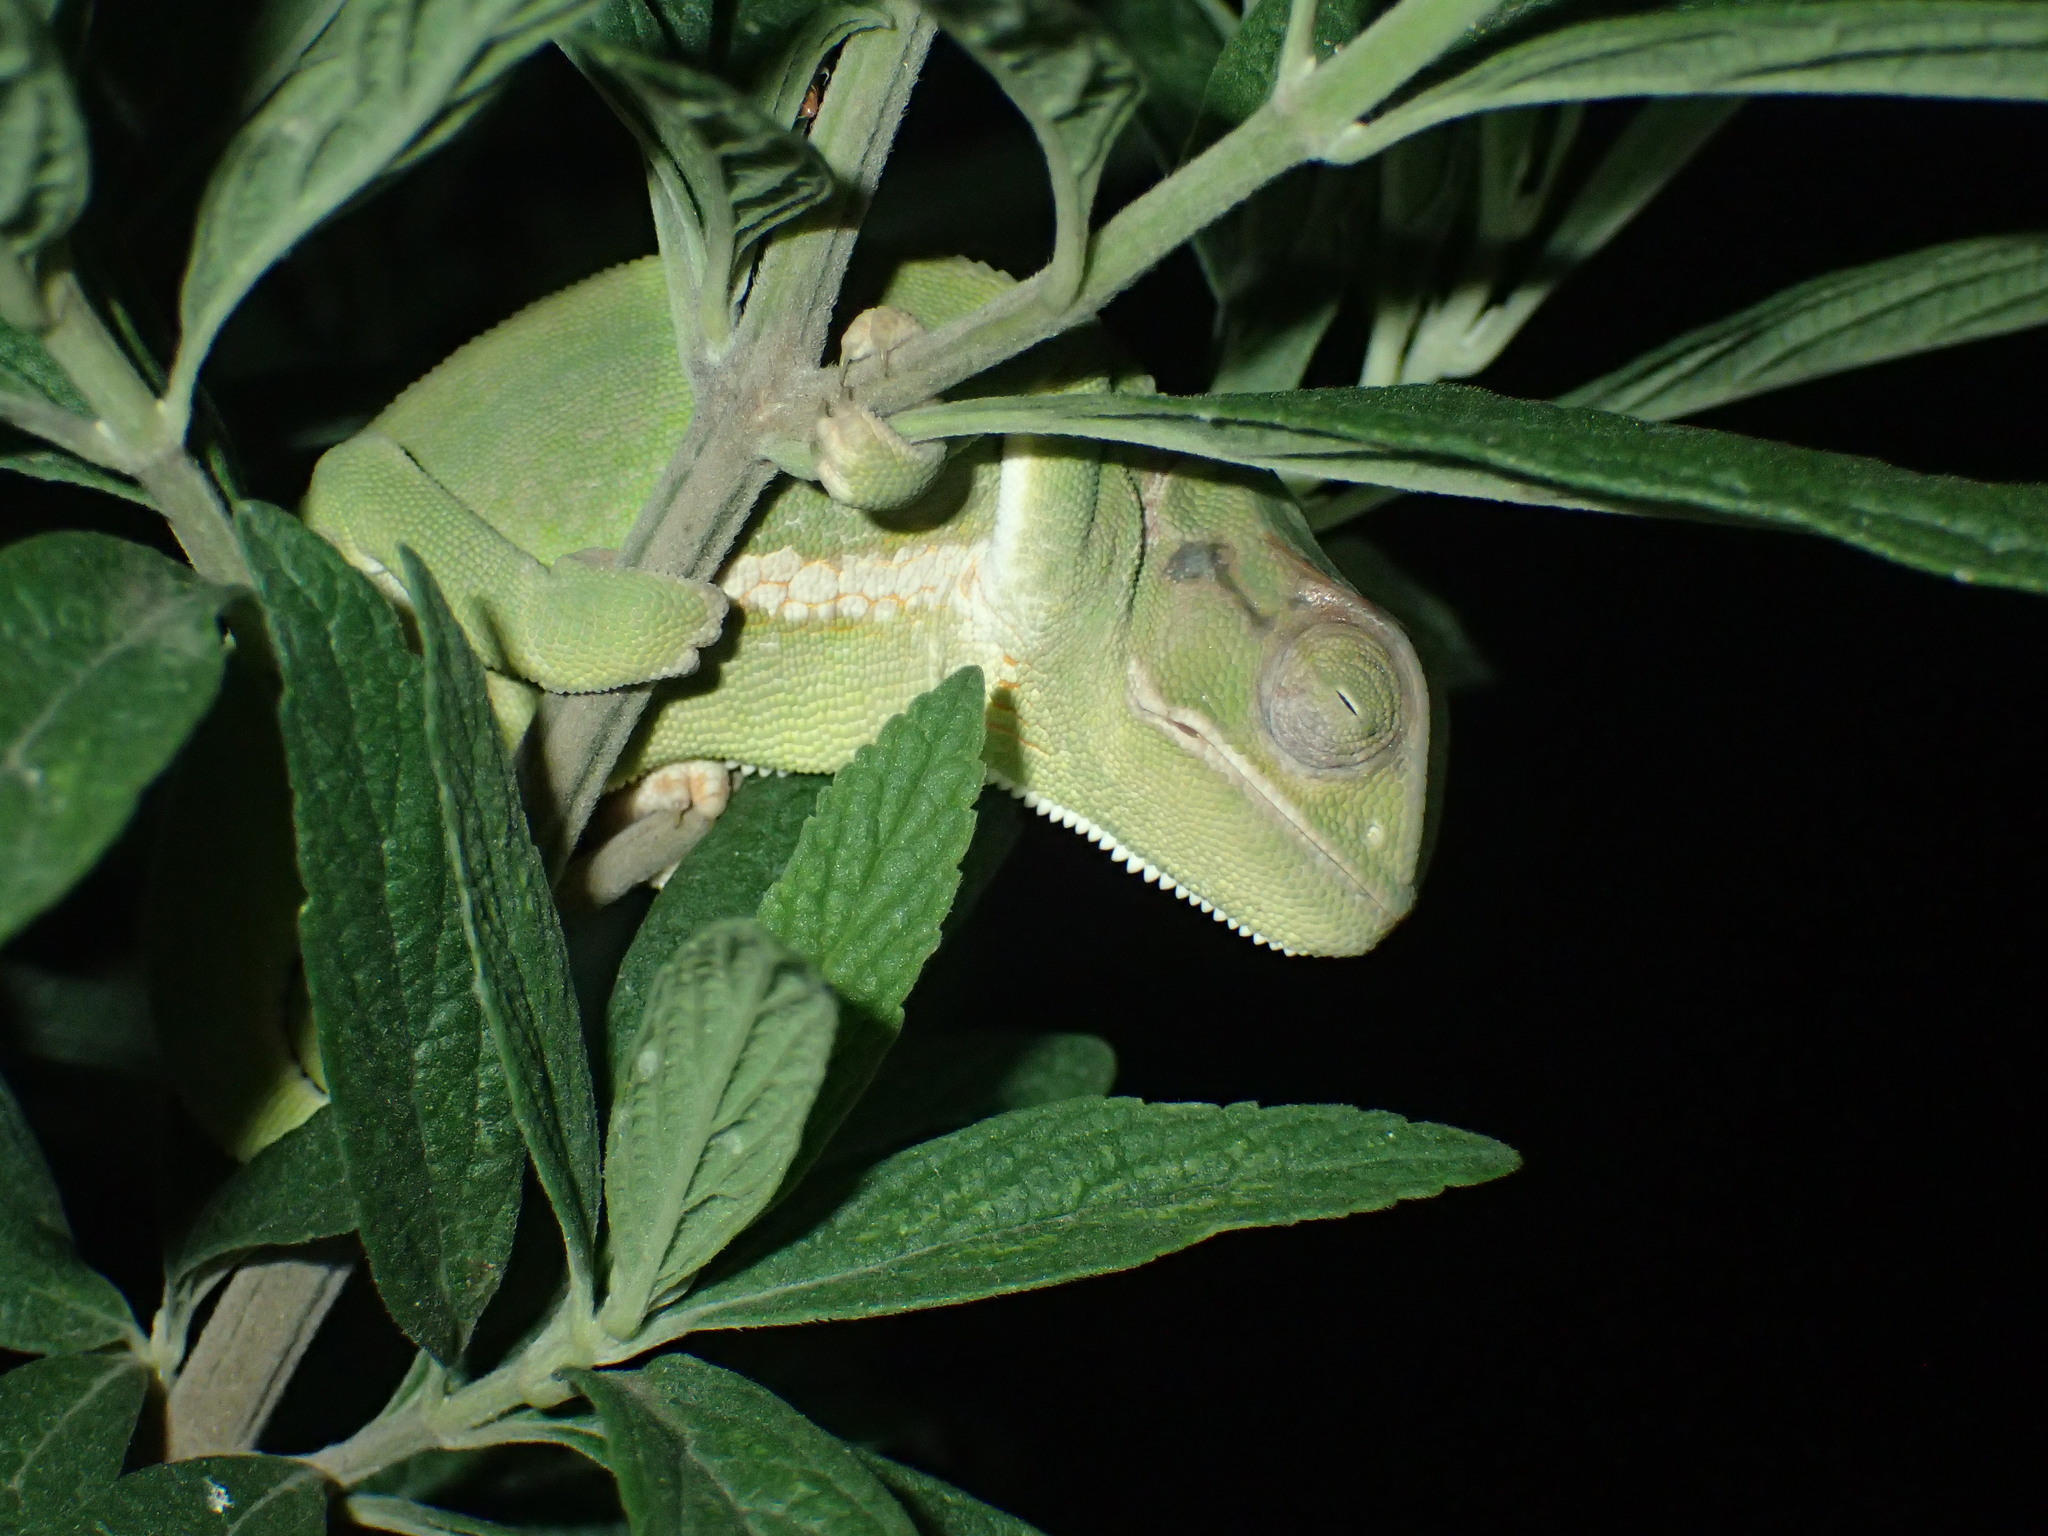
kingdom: Animalia
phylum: Chordata
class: Squamata
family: Chamaeleonidae
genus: Chamaeleo
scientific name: Chamaeleo dilepis
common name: Flapneck chameleon
